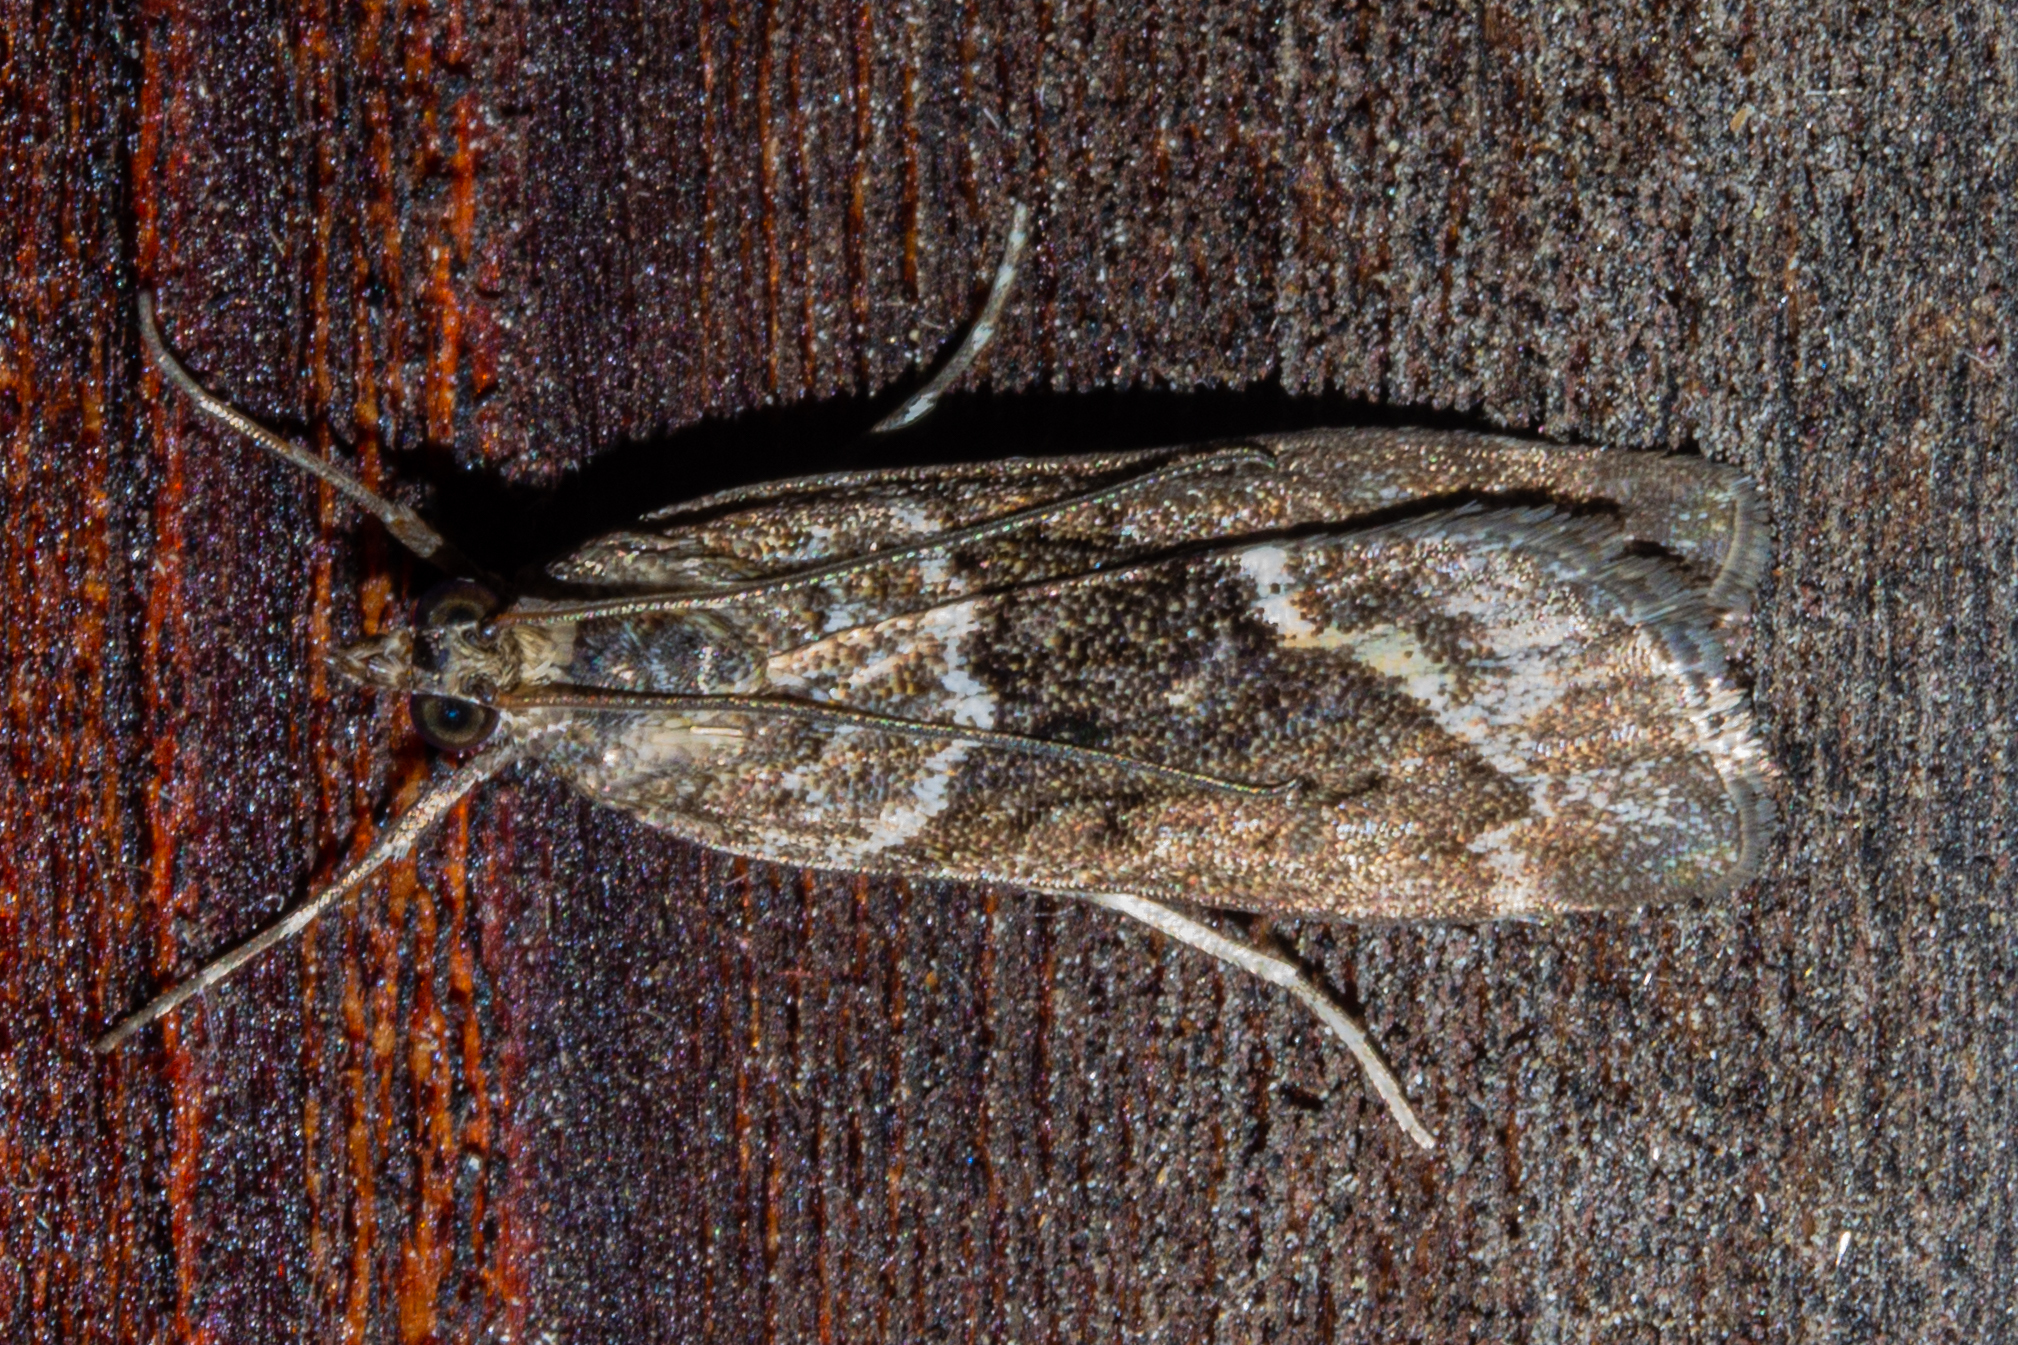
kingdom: Animalia
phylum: Arthropoda
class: Insecta
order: Lepidoptera
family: Crambidae
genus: Eudonia
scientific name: Eudonia submarginalis
